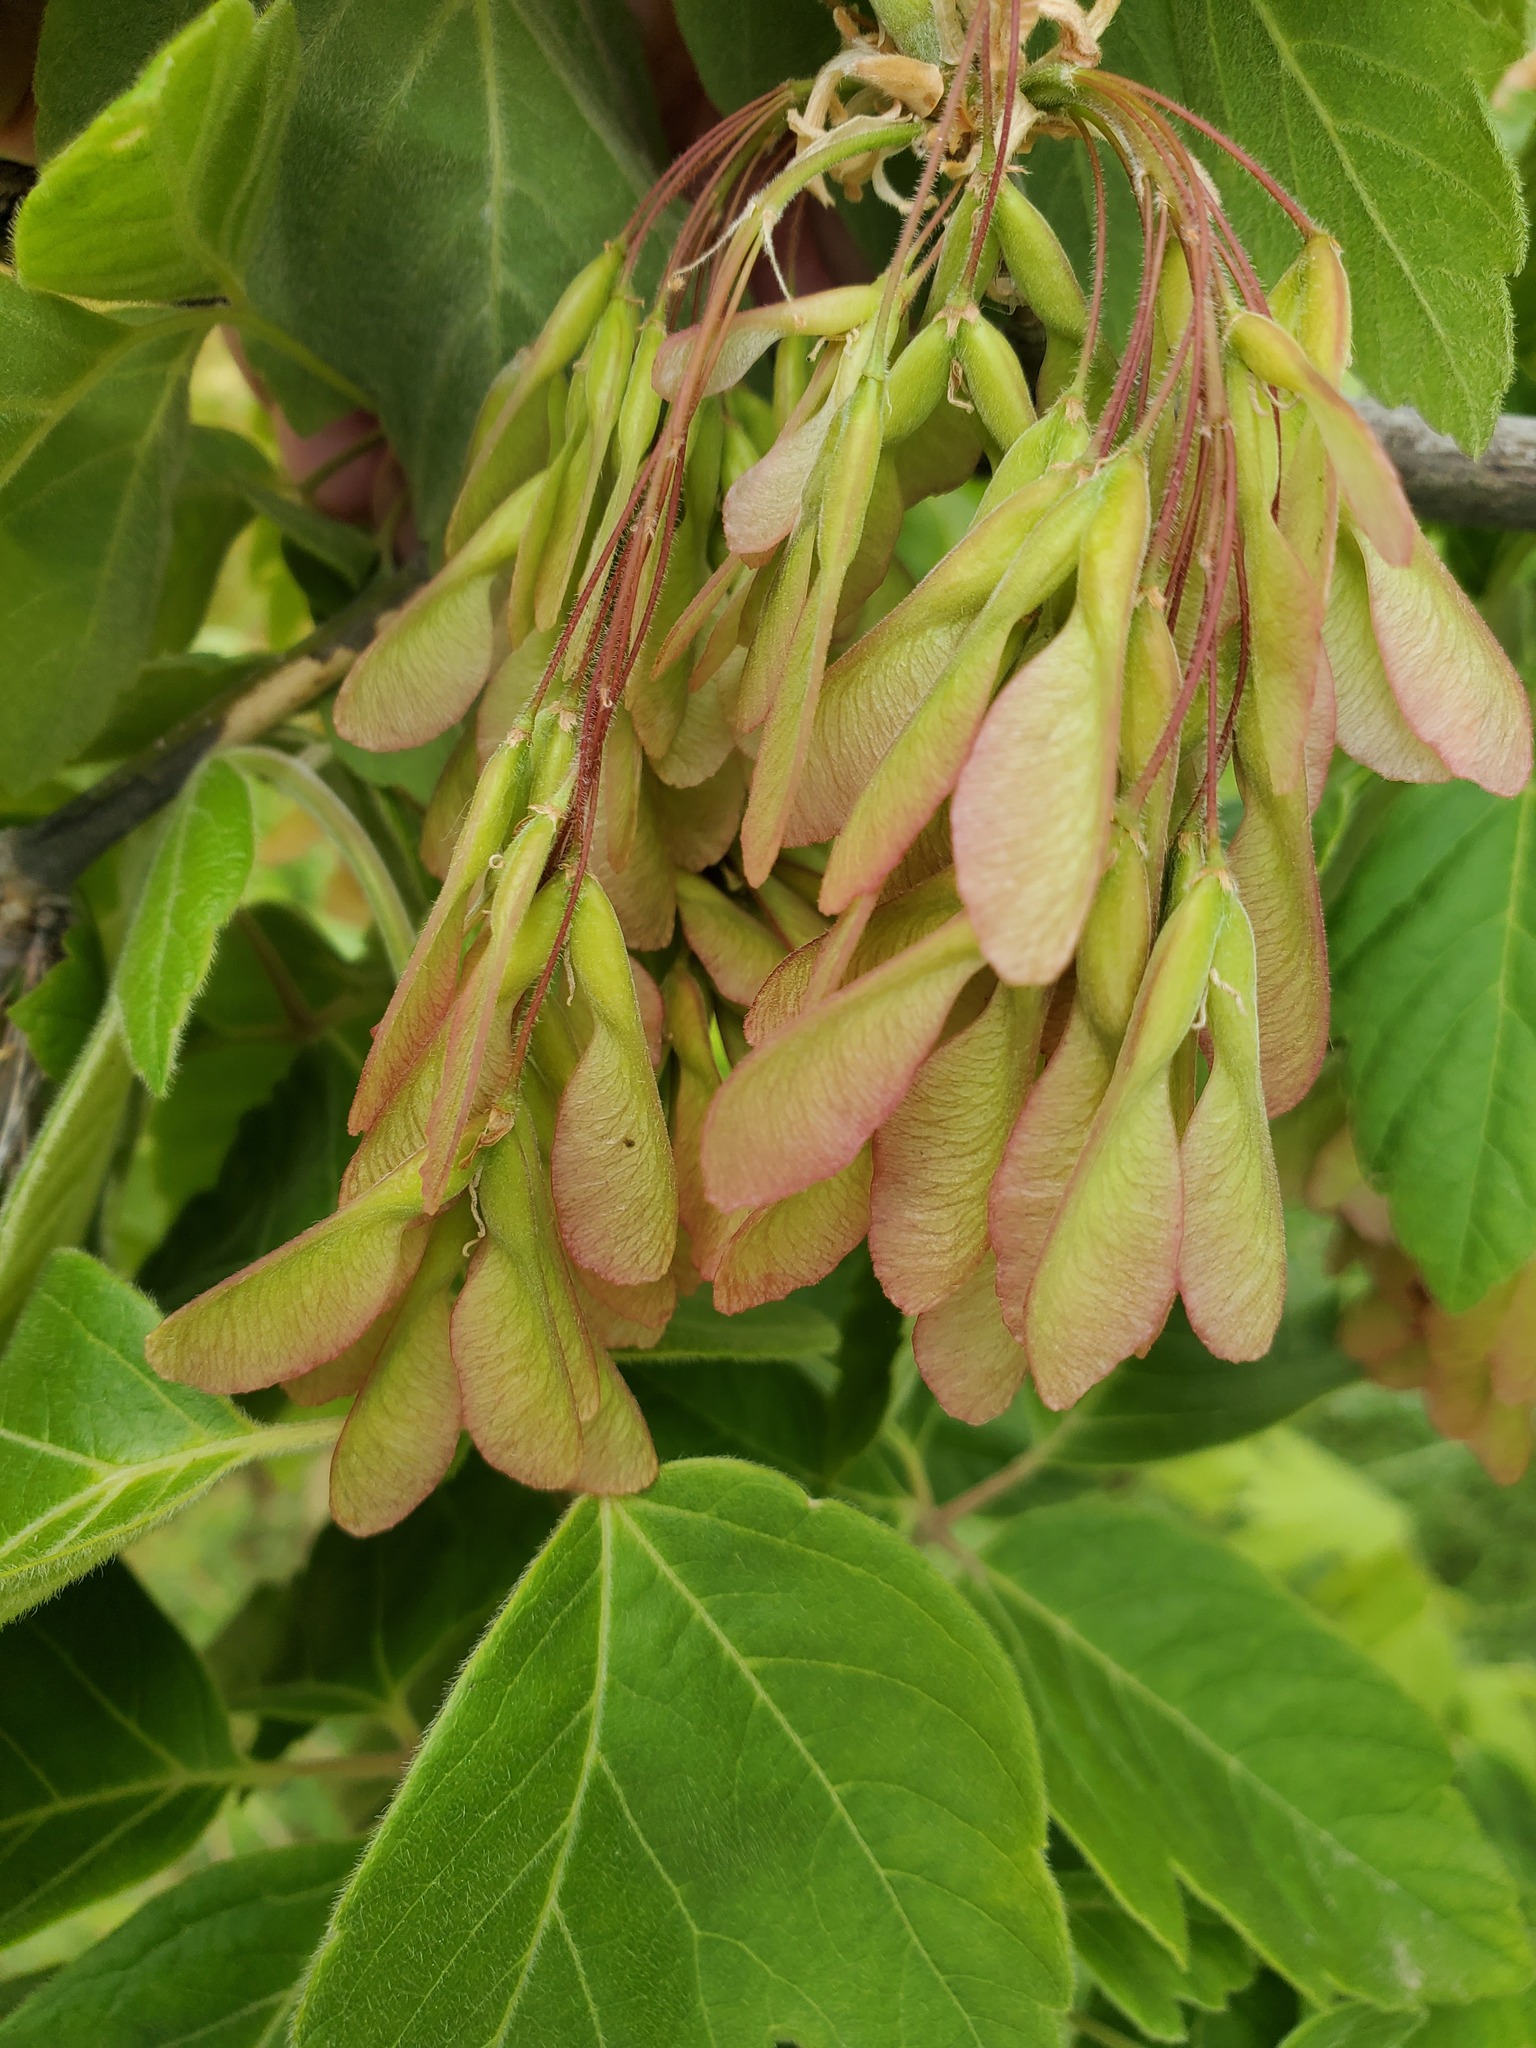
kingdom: Plantae
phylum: Tracheophyta
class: Magnoliopsida
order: Sapindales
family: Sapindaceae
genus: Acer
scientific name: Acer negundo
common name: Ashleaf maple
